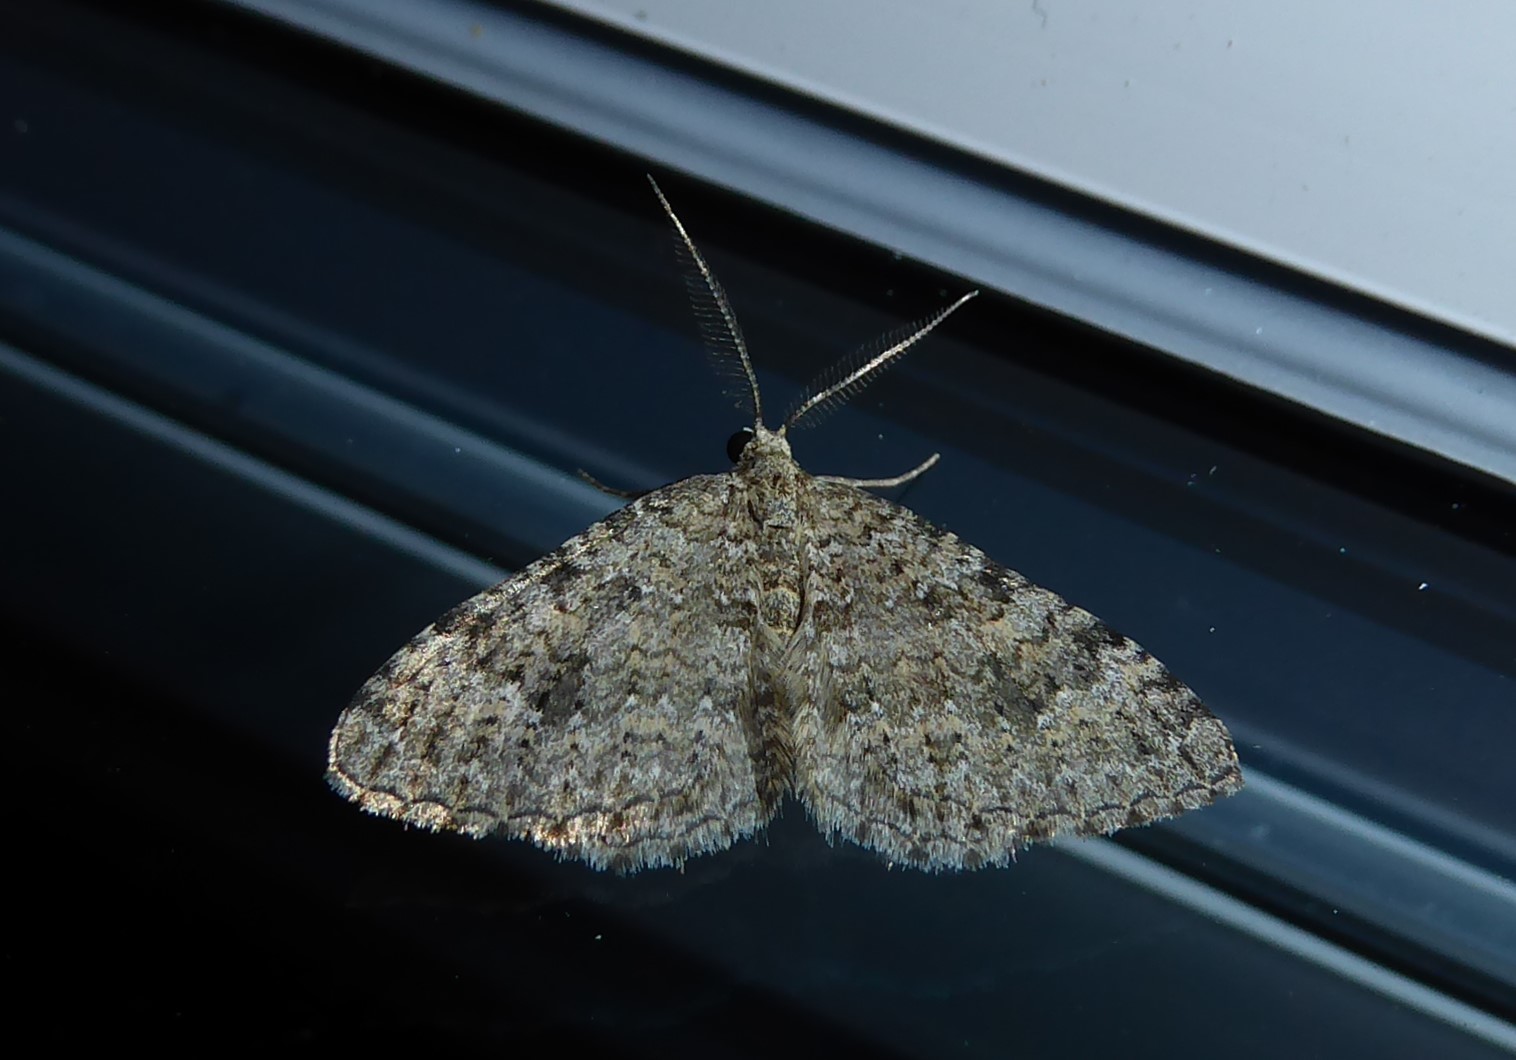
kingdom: Animalia
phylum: Arthropoda
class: Insecta
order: Lepidoptera
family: Geometridae
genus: Helastia
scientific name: Helastia corcularia
